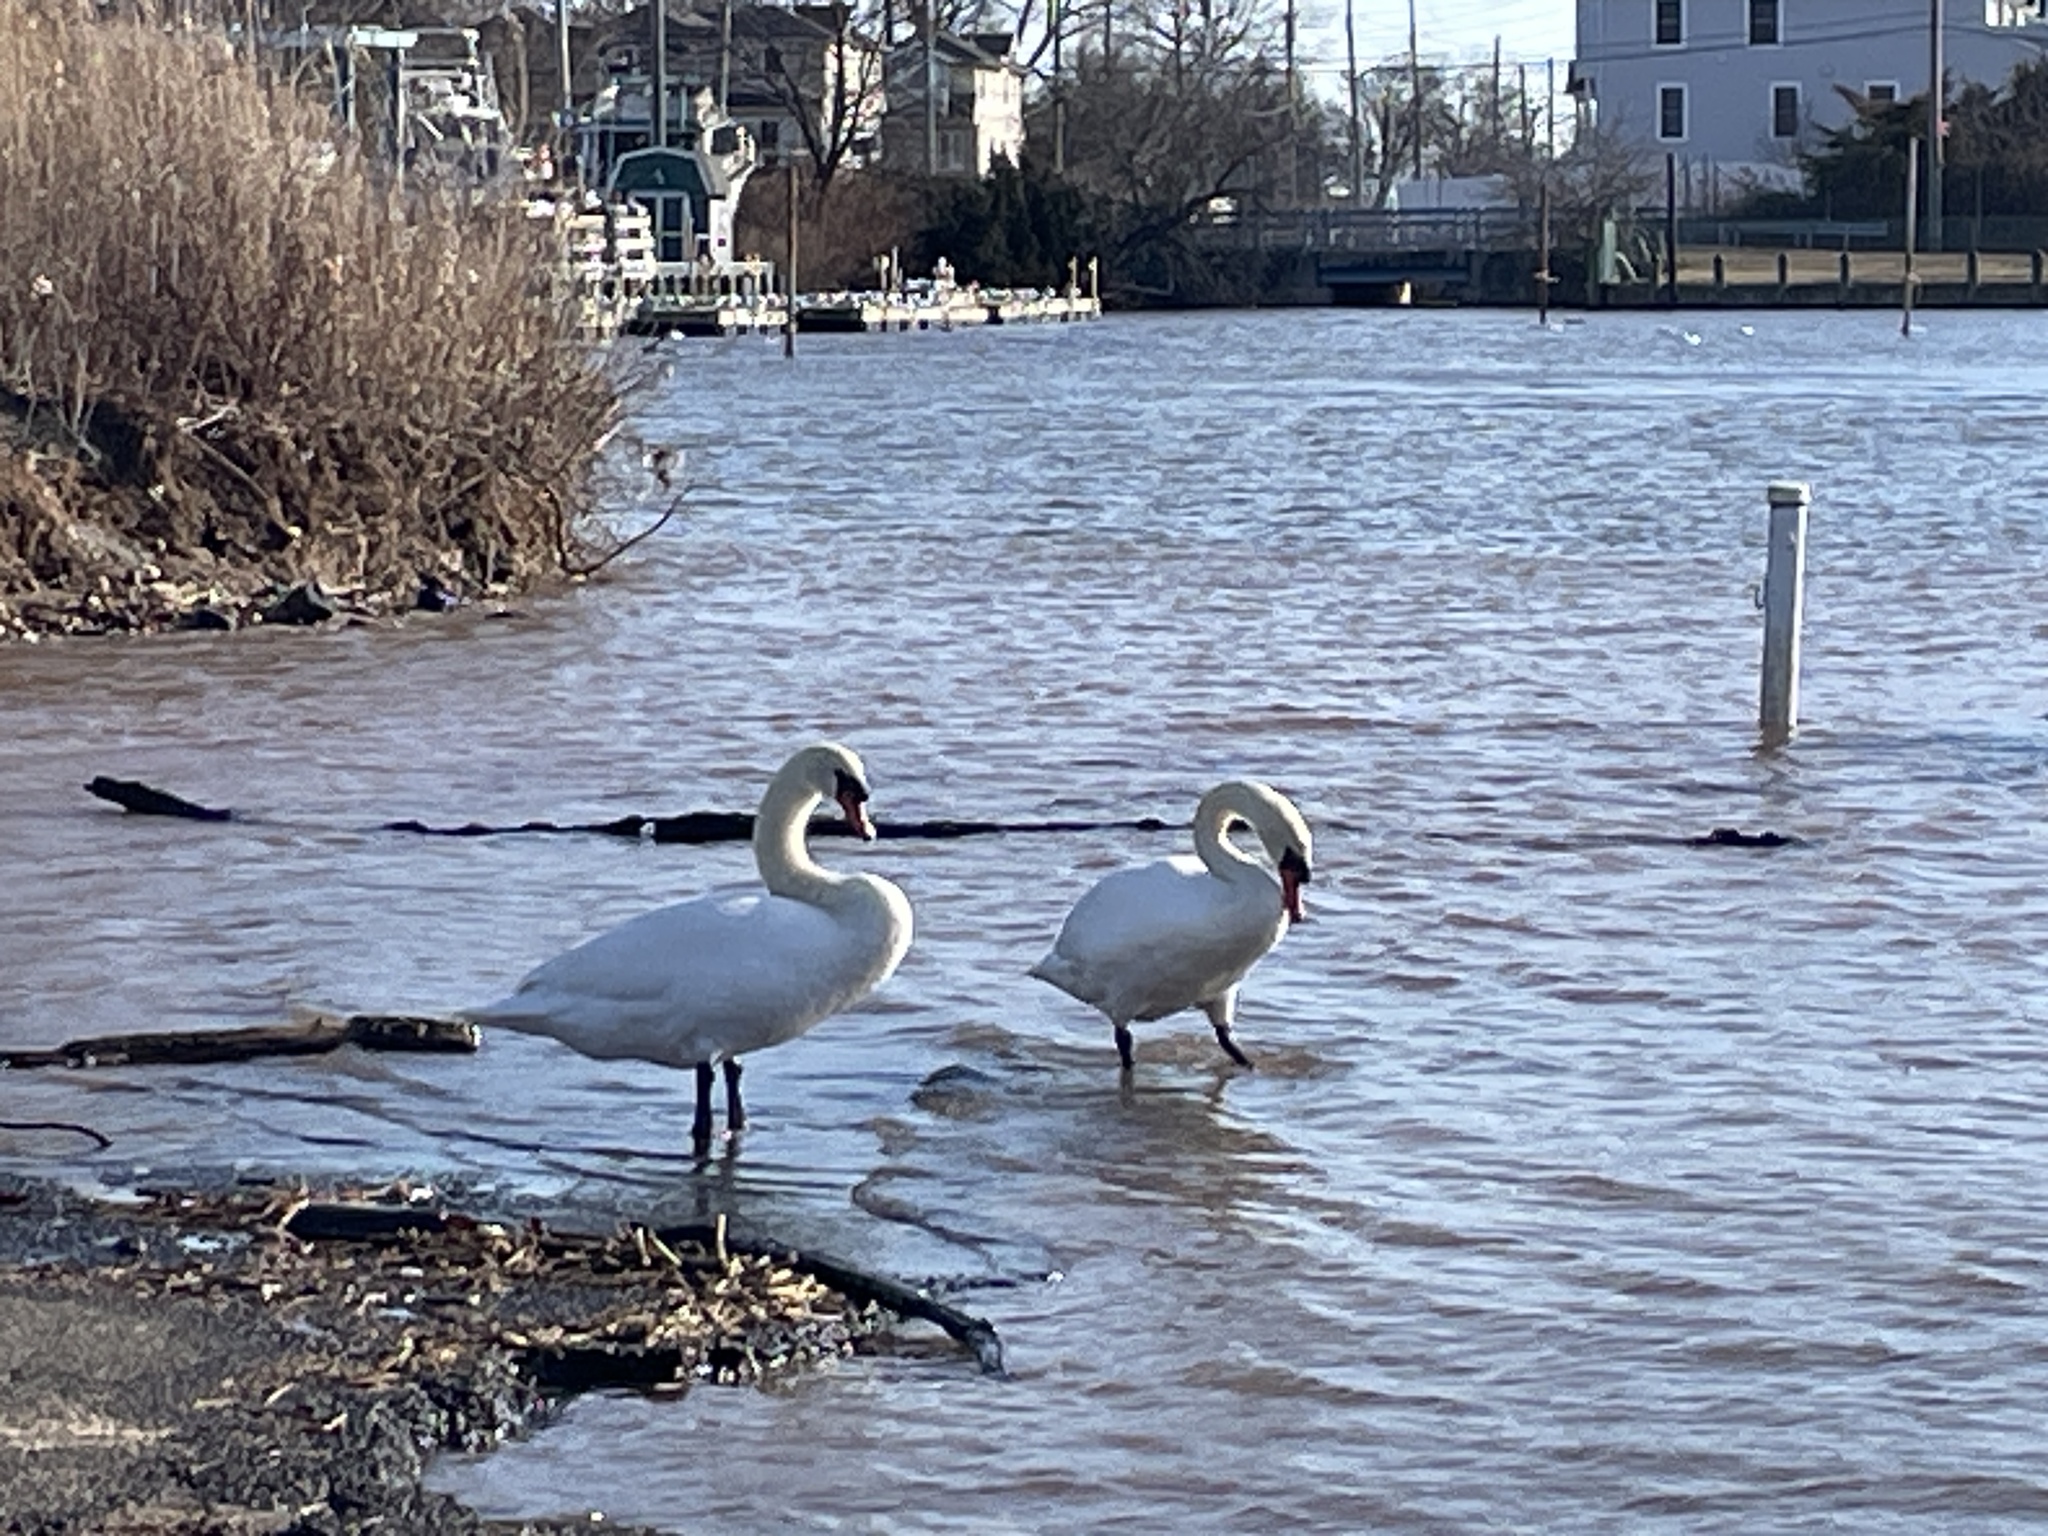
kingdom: Animalia
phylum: Chordata
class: Aves
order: Anseriformes
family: Anatidae
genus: Cygnus
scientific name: Cygnus olor
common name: Mute swan
